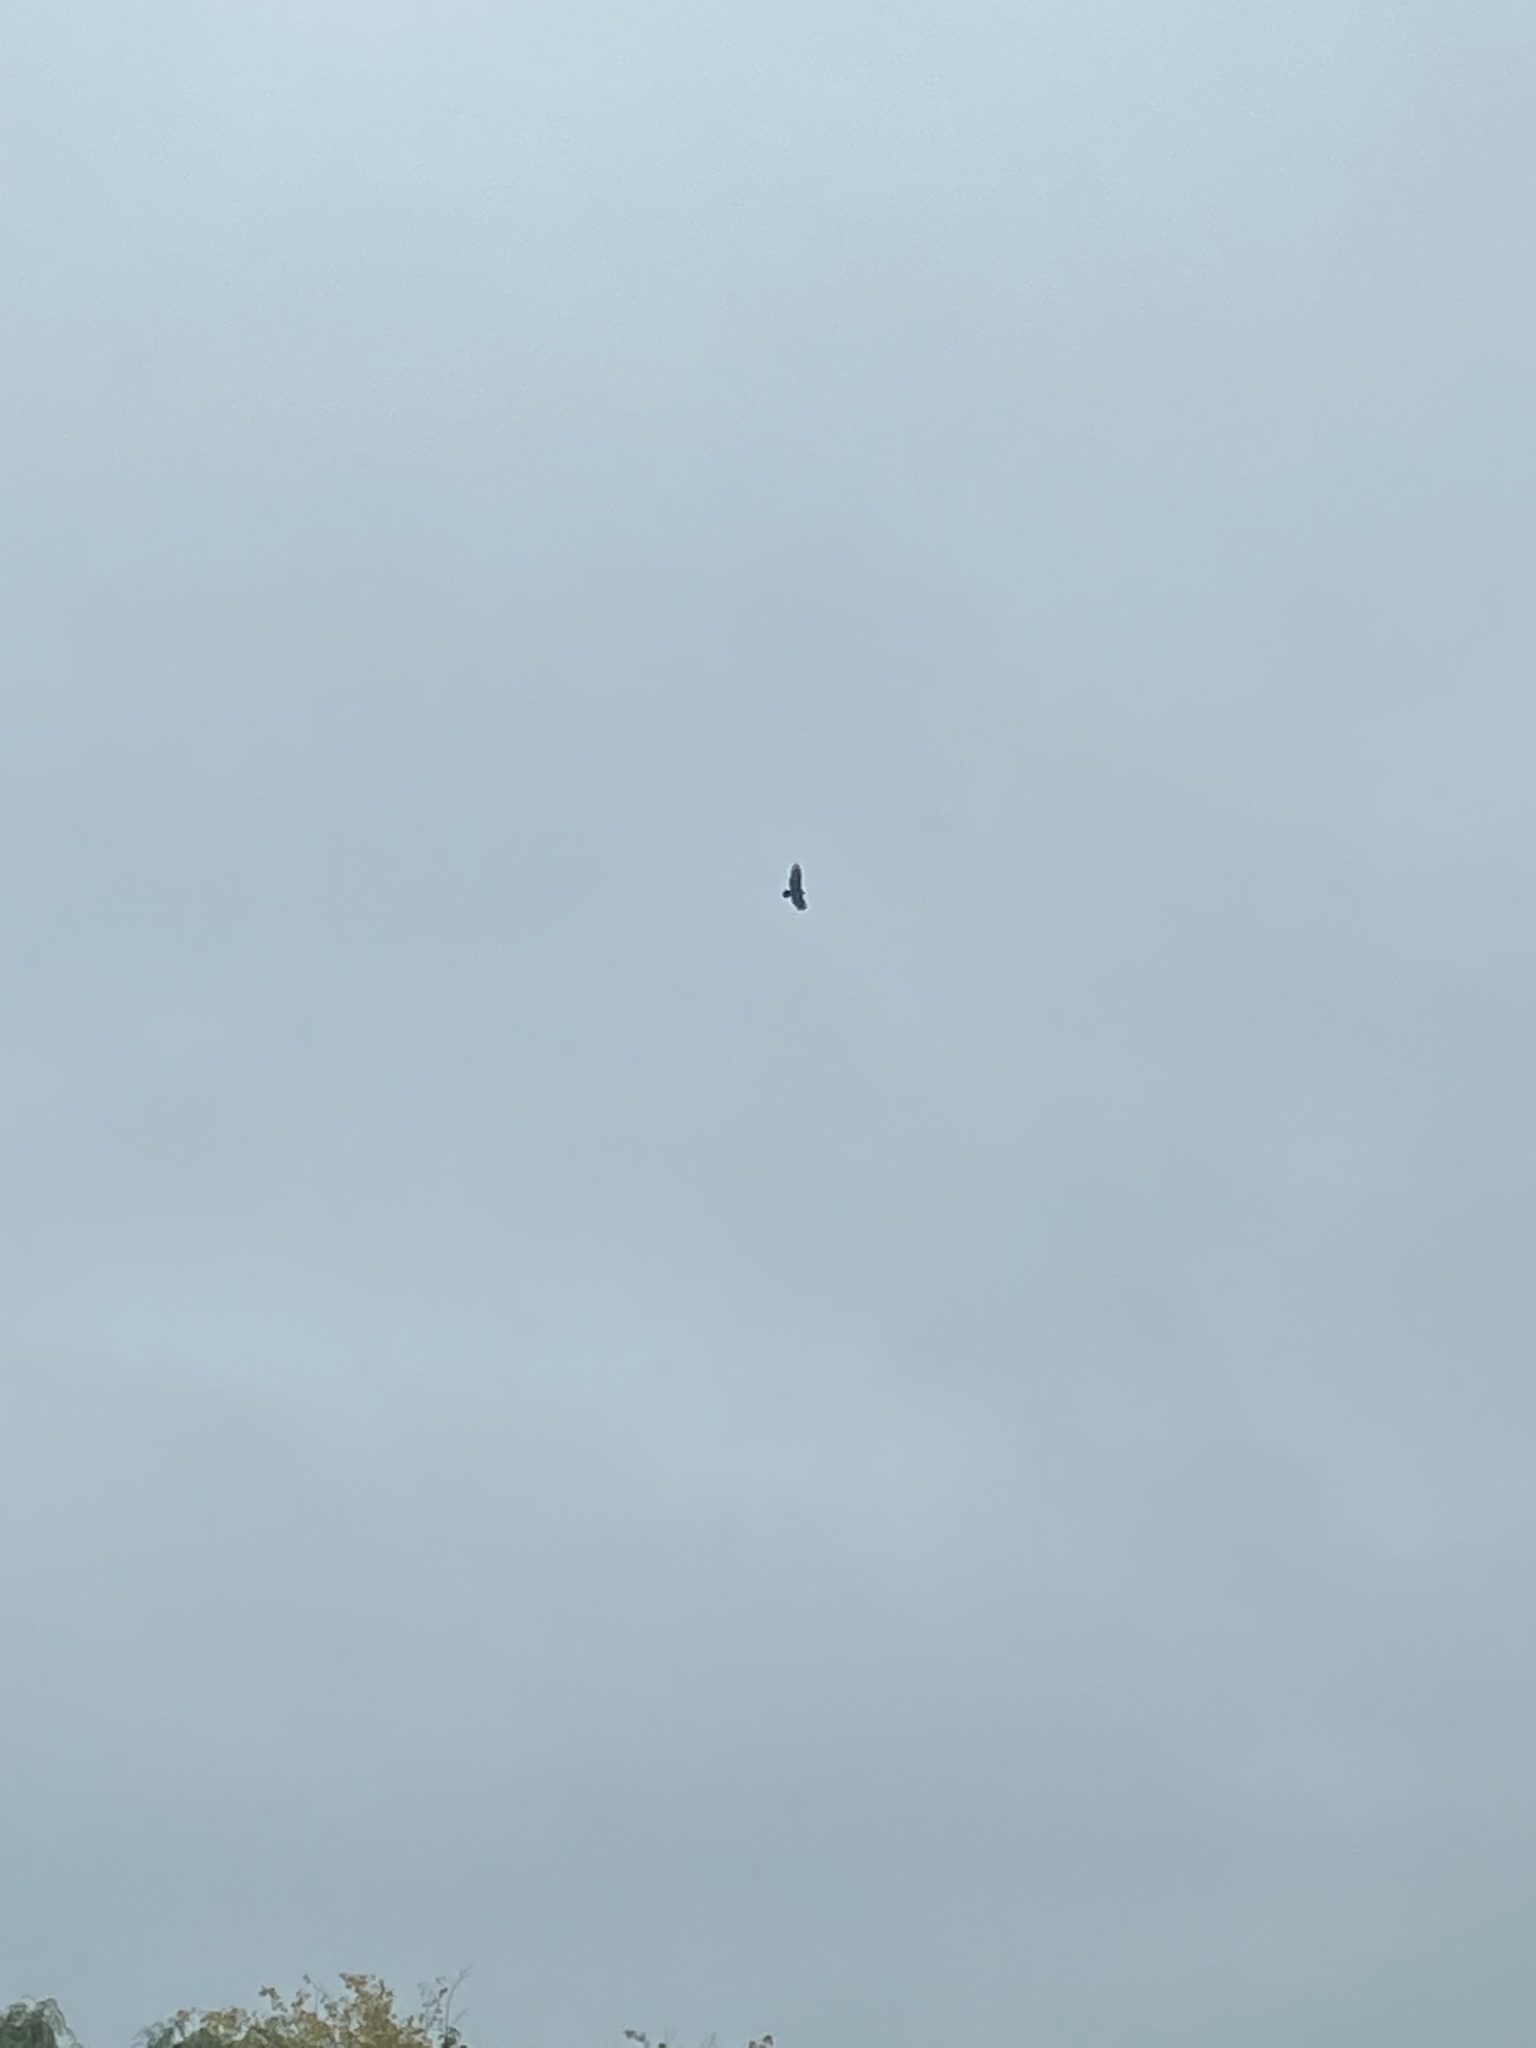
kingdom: Animalia
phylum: Chordata
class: Aves
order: Accipitriformes
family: Cathartidae
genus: Cathartes
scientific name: Cathartes aura
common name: Turkey vulture
